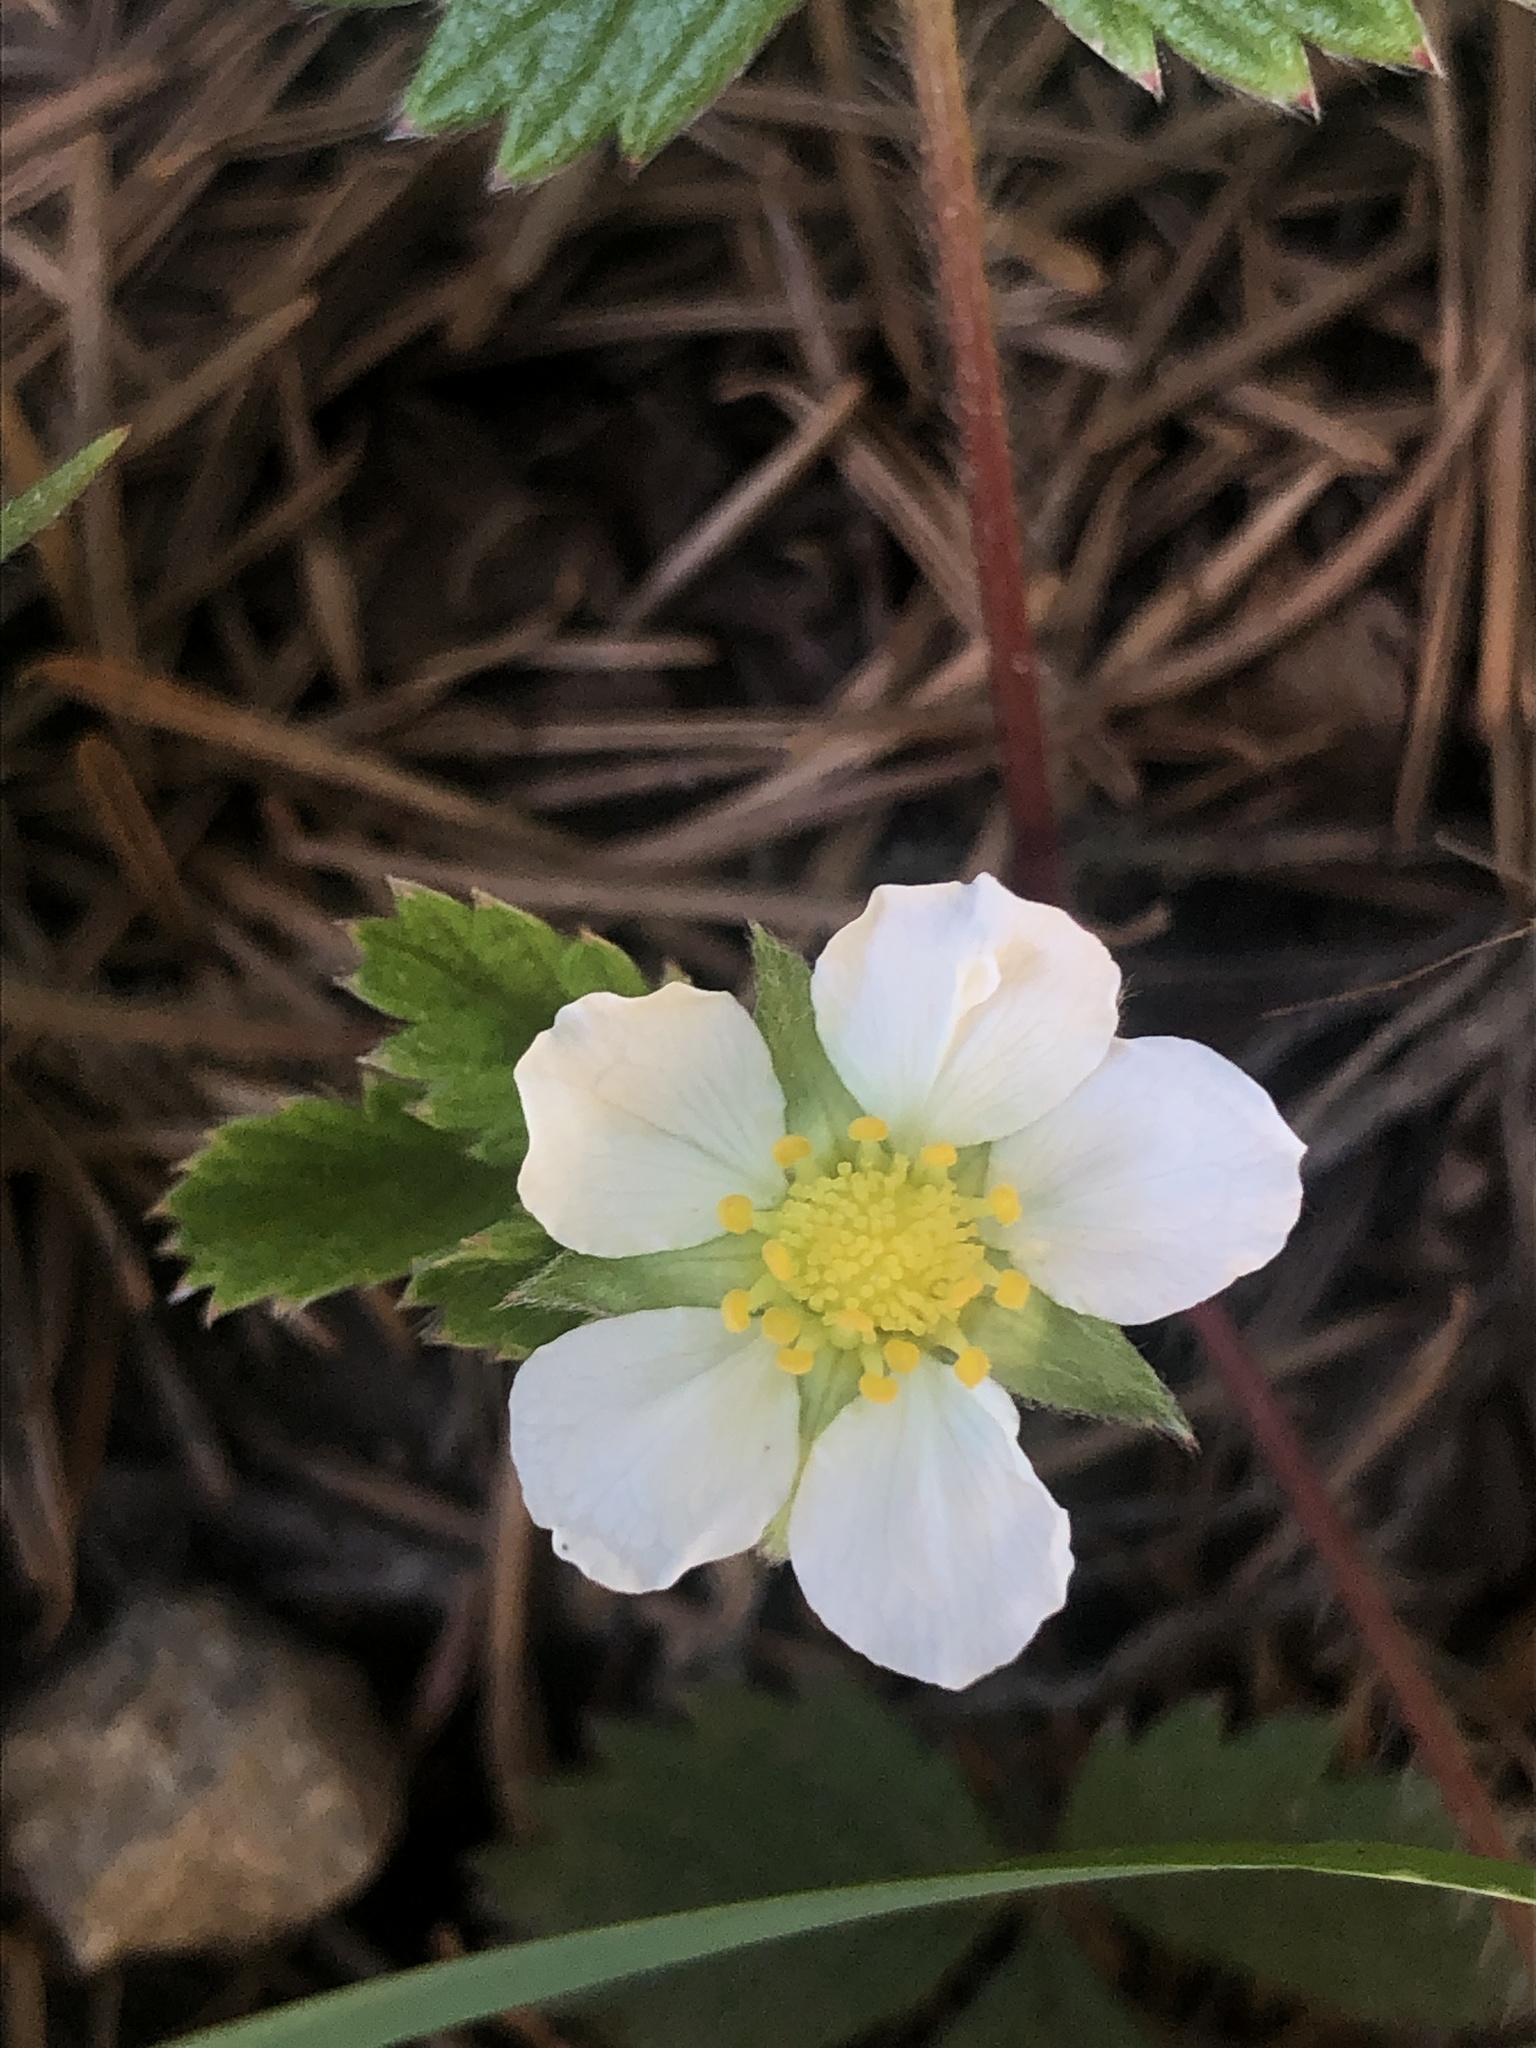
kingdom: Plantae
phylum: Tracheophyta
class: Magnoliopsida
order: Rosales
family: Rosaceae
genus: Fragaria
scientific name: Fragaria vesca
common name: Wild strawberry
